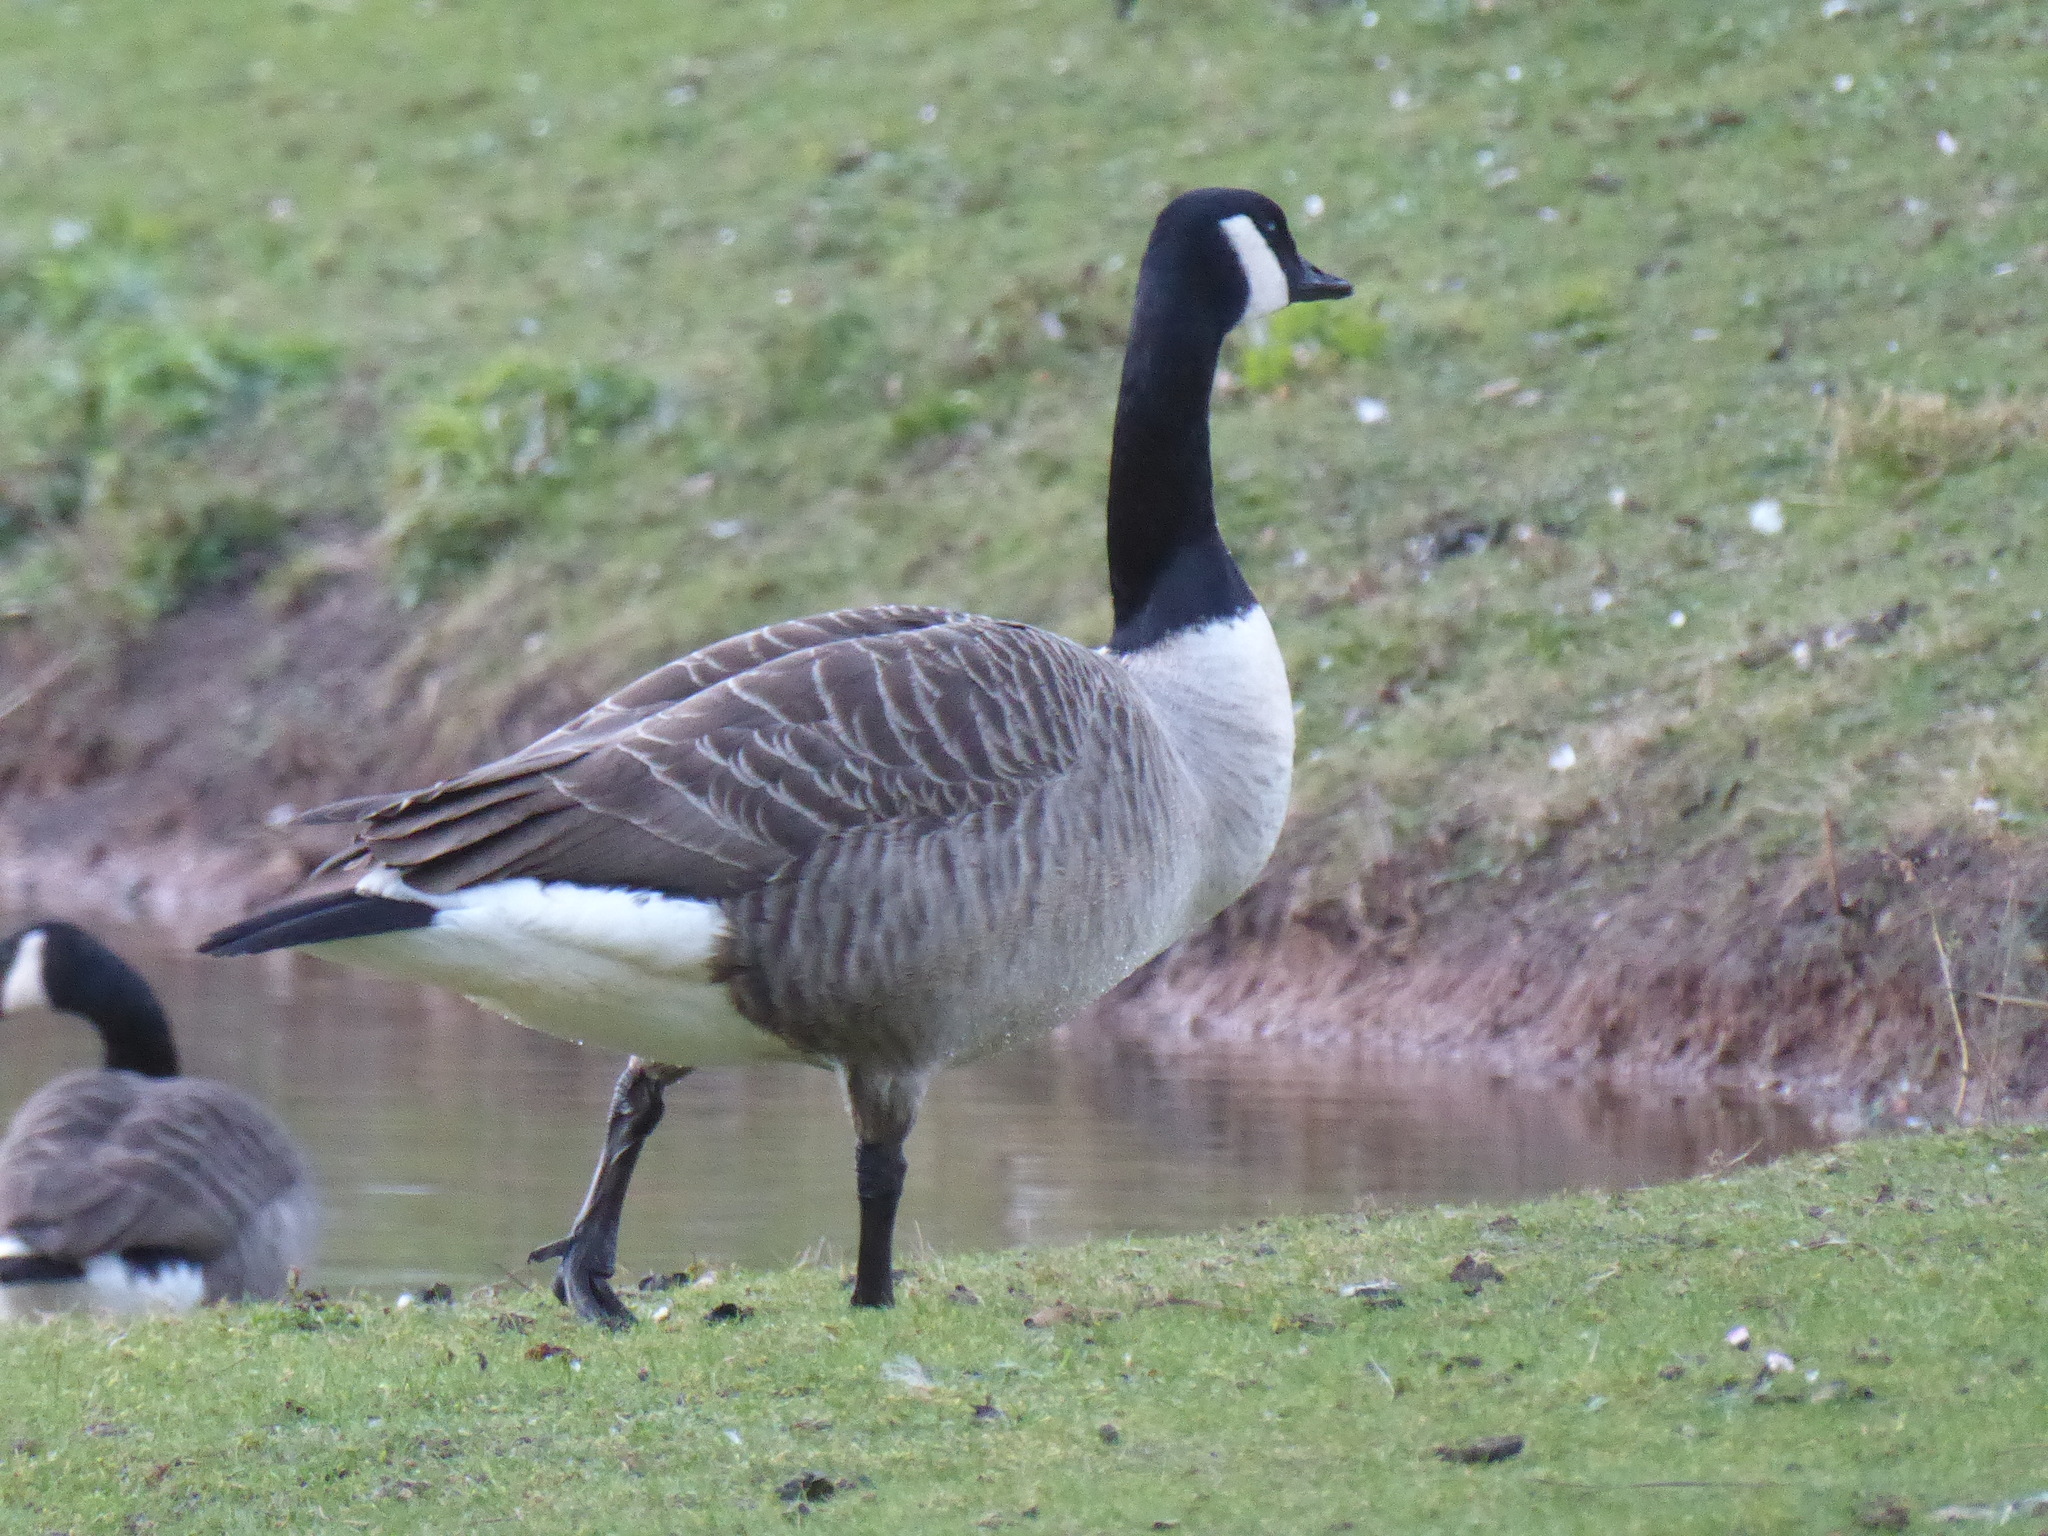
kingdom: Animalia
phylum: Chordata
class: Aves
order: Anseriformes
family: Anatidae
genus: Branta
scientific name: Branta canadensis
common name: Canada goose
